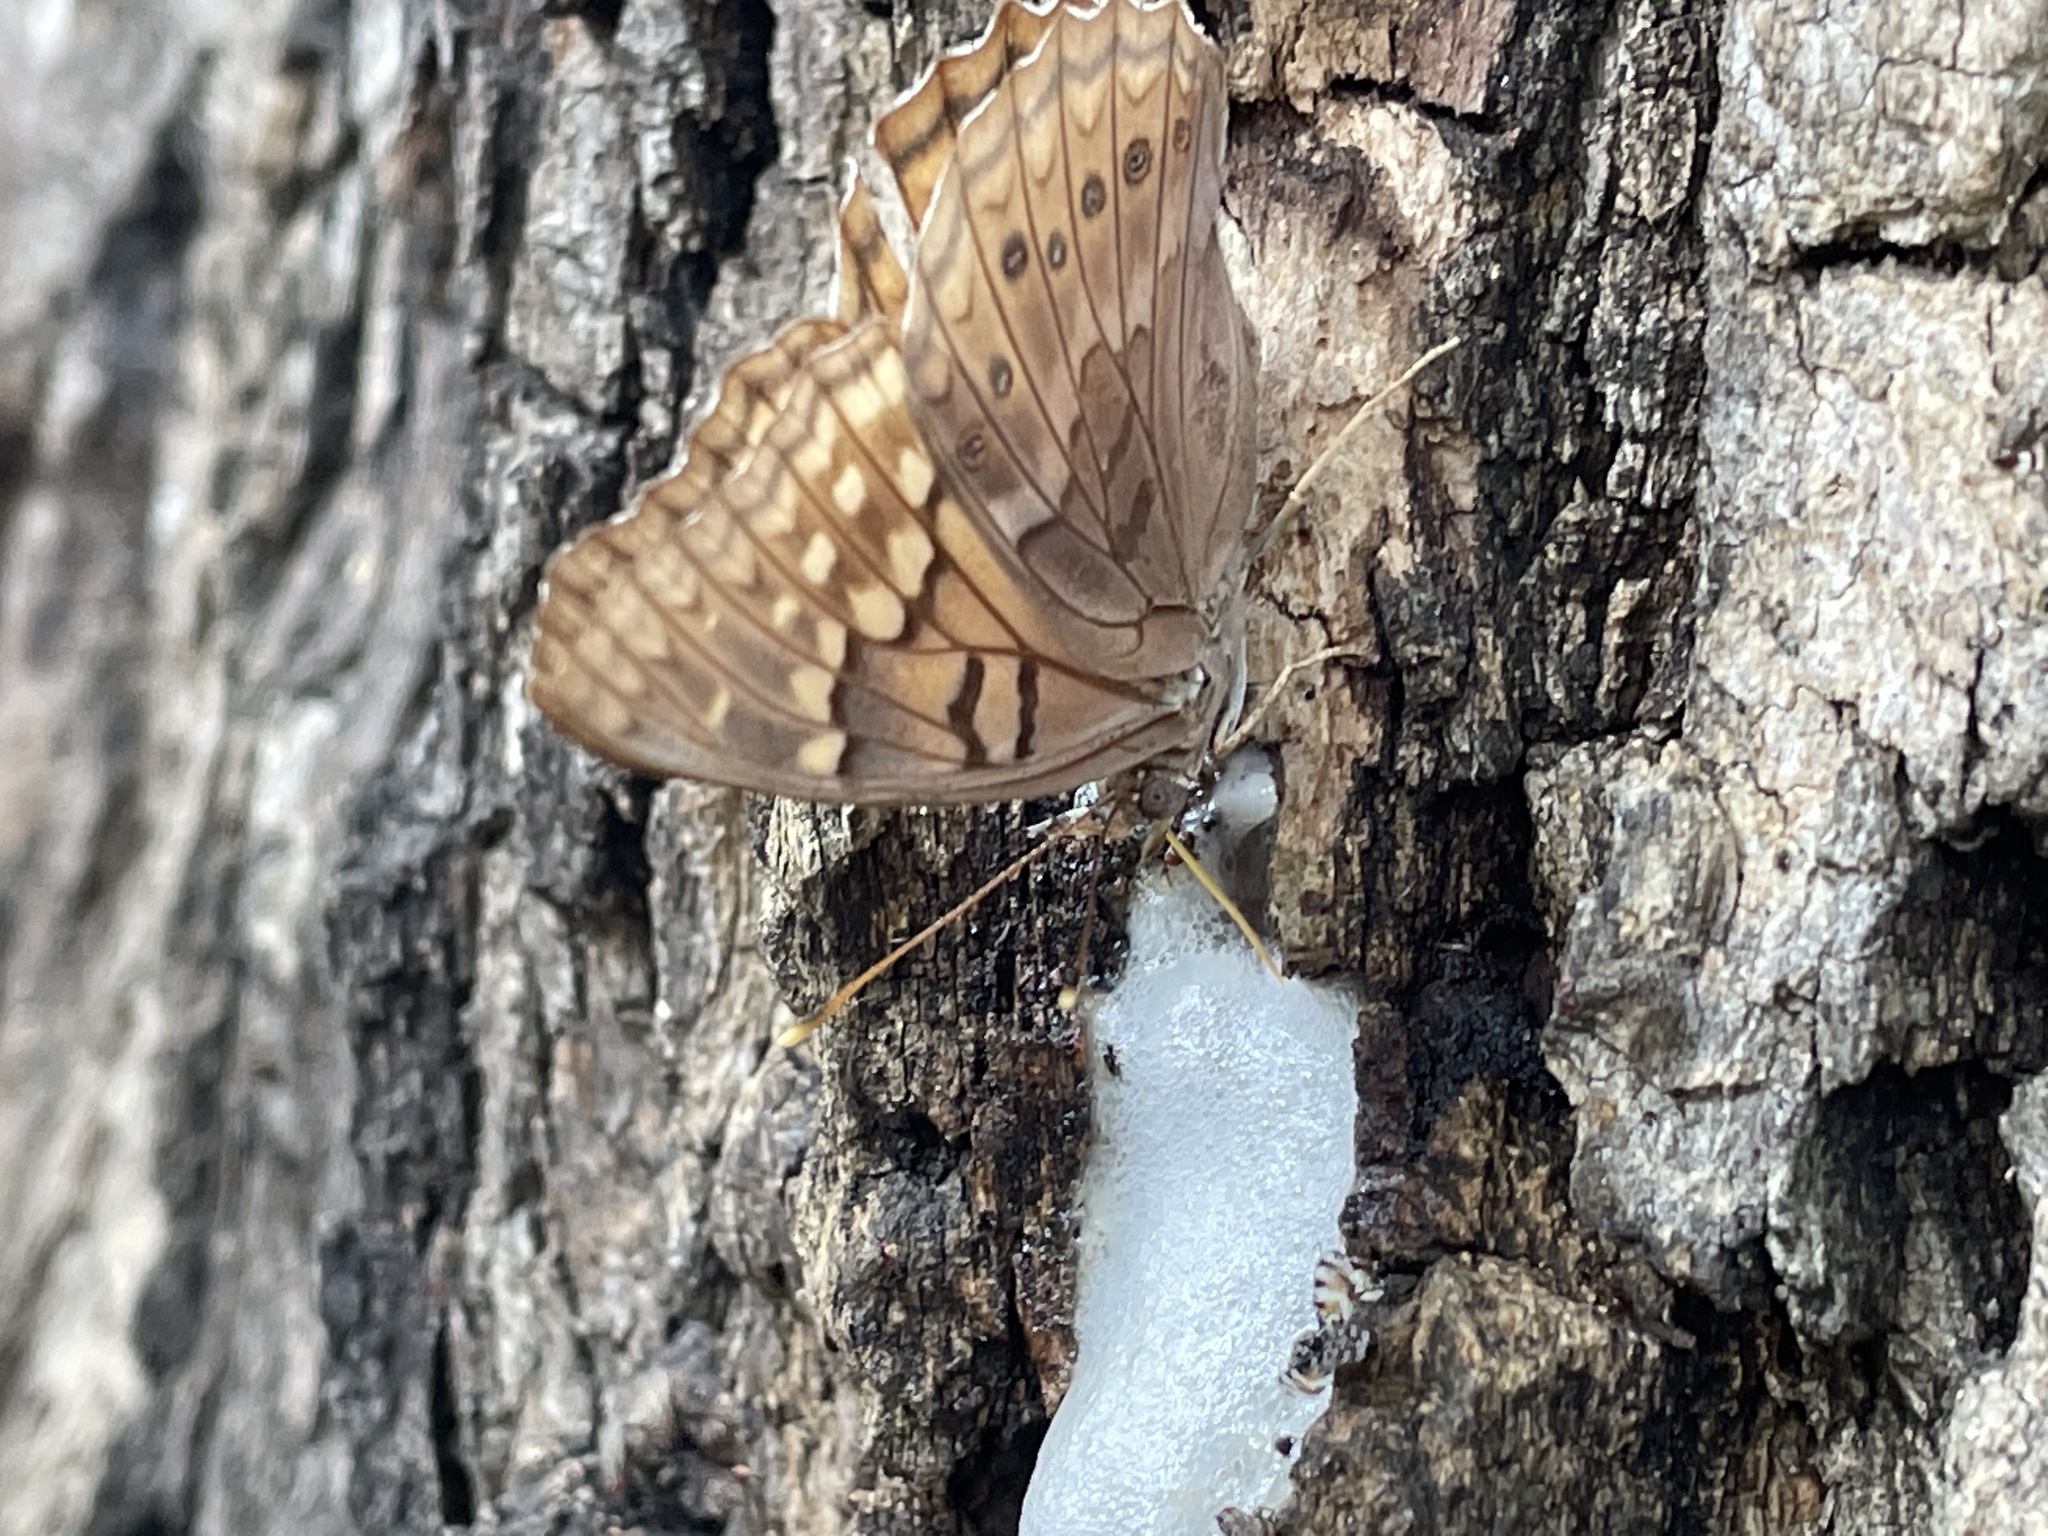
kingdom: Animalia
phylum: Arthropoda
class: Insecta
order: Lepidoptera
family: Nymphalidae
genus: Asterocampa
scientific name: Asterocampa clyton
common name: Tawny emperor
